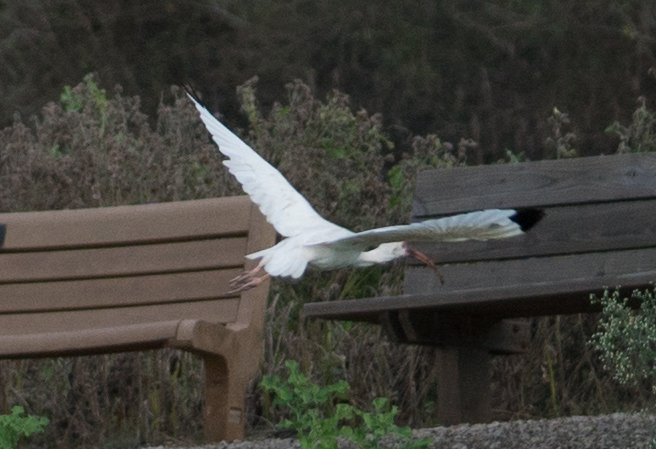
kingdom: Animalia
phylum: Chordata
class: Aves
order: Pelecaniformes
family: Threskiornithidae
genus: Eudocimus
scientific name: Eudocimus albus
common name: White ibis
